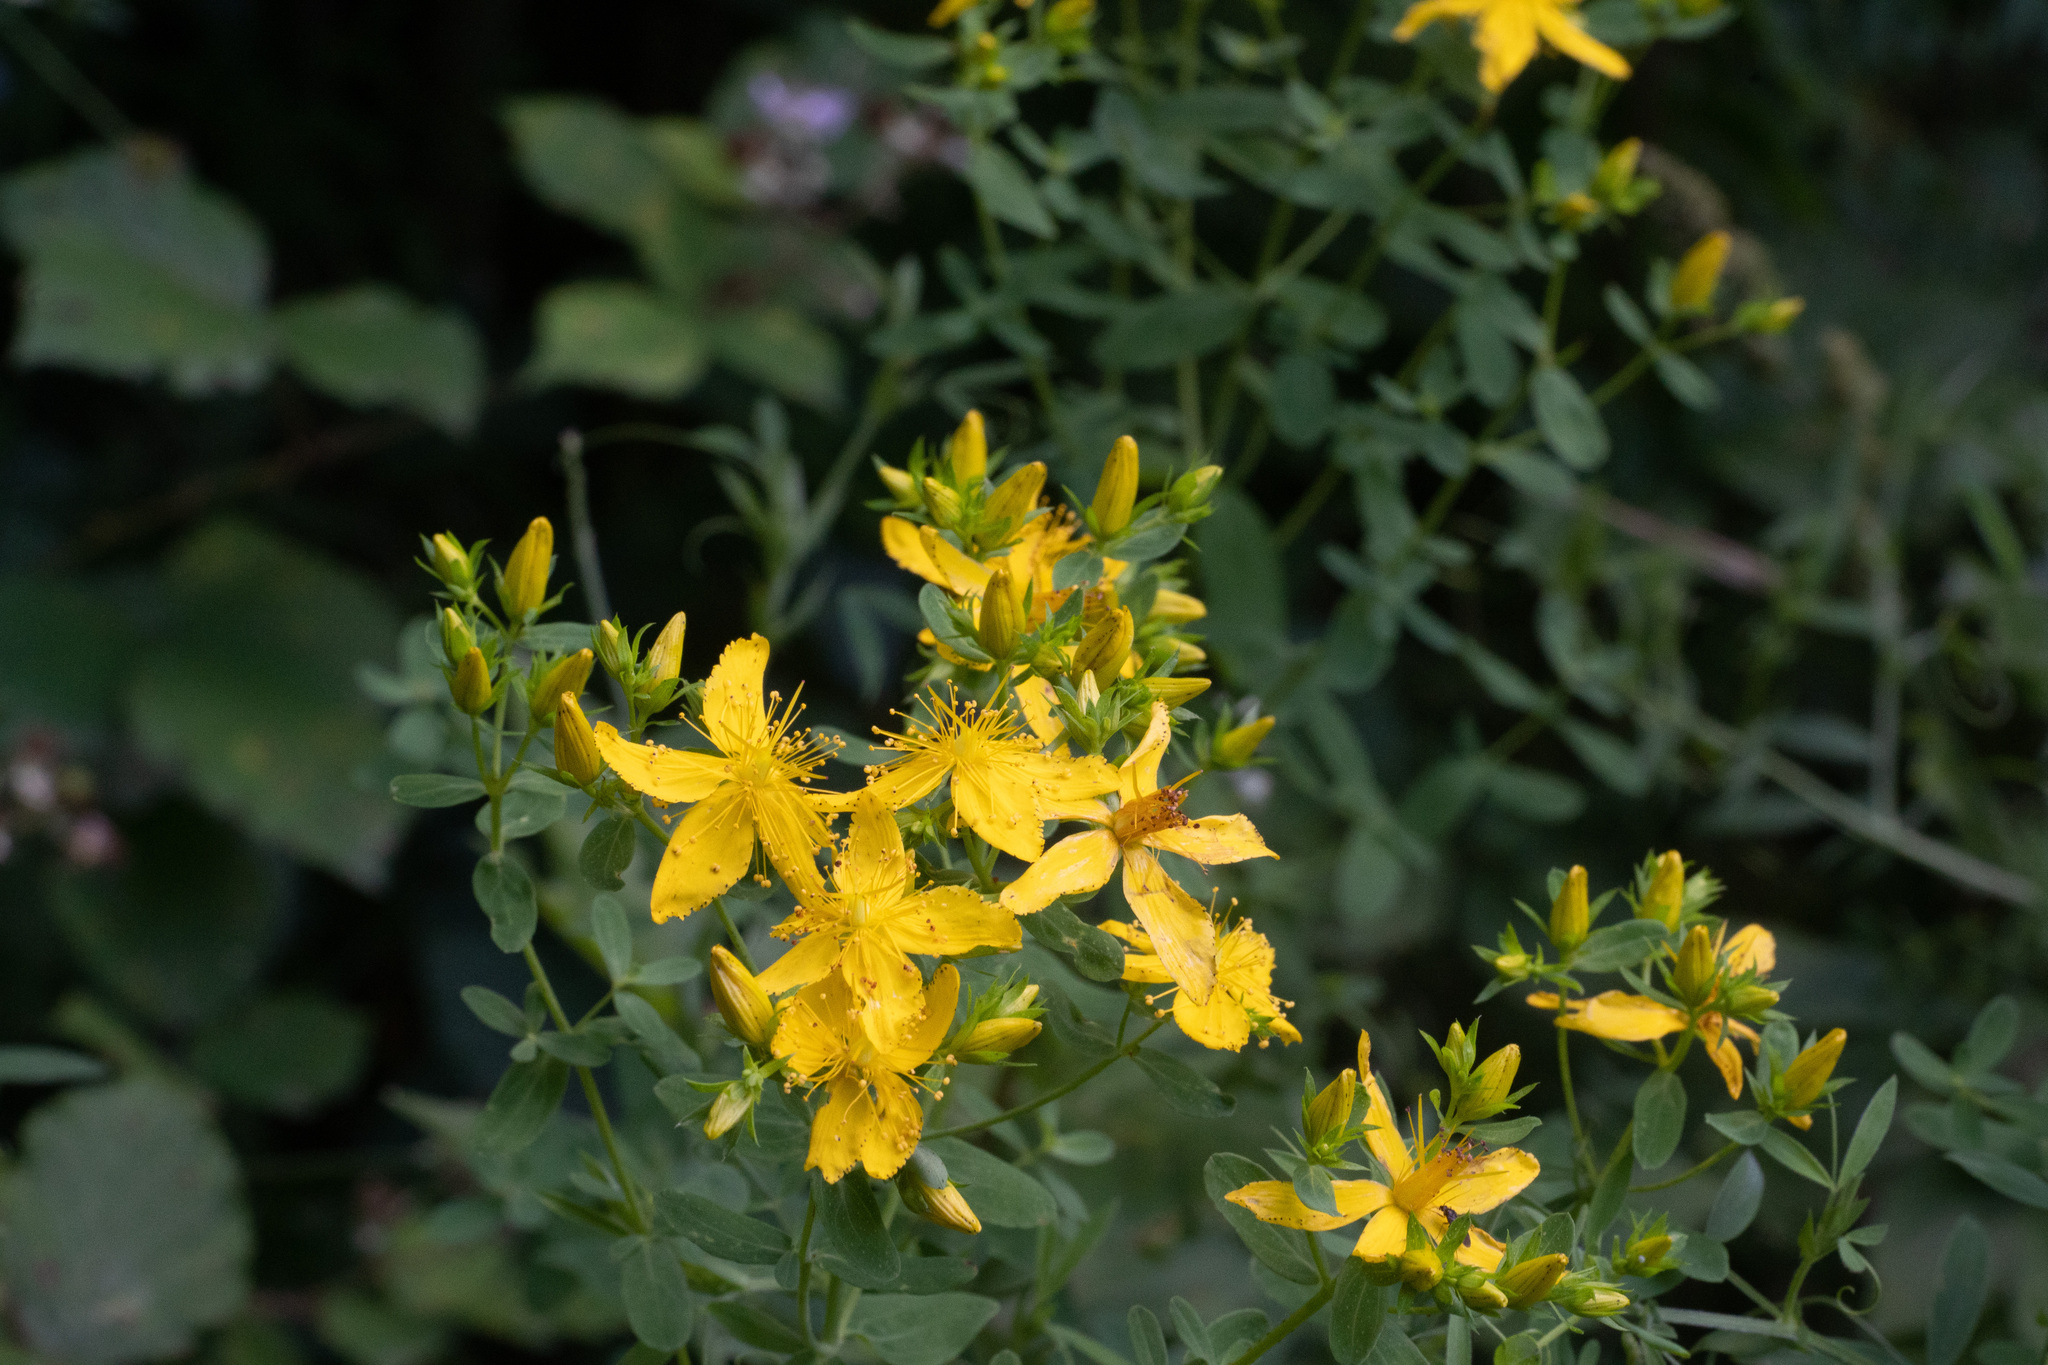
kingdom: Plantae
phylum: Tracheophyta
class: Magnoliopsida
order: Malpighiales
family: Hypericaceae
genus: Hypericum
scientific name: Hypericum perforatum
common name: Common st. johnswort
